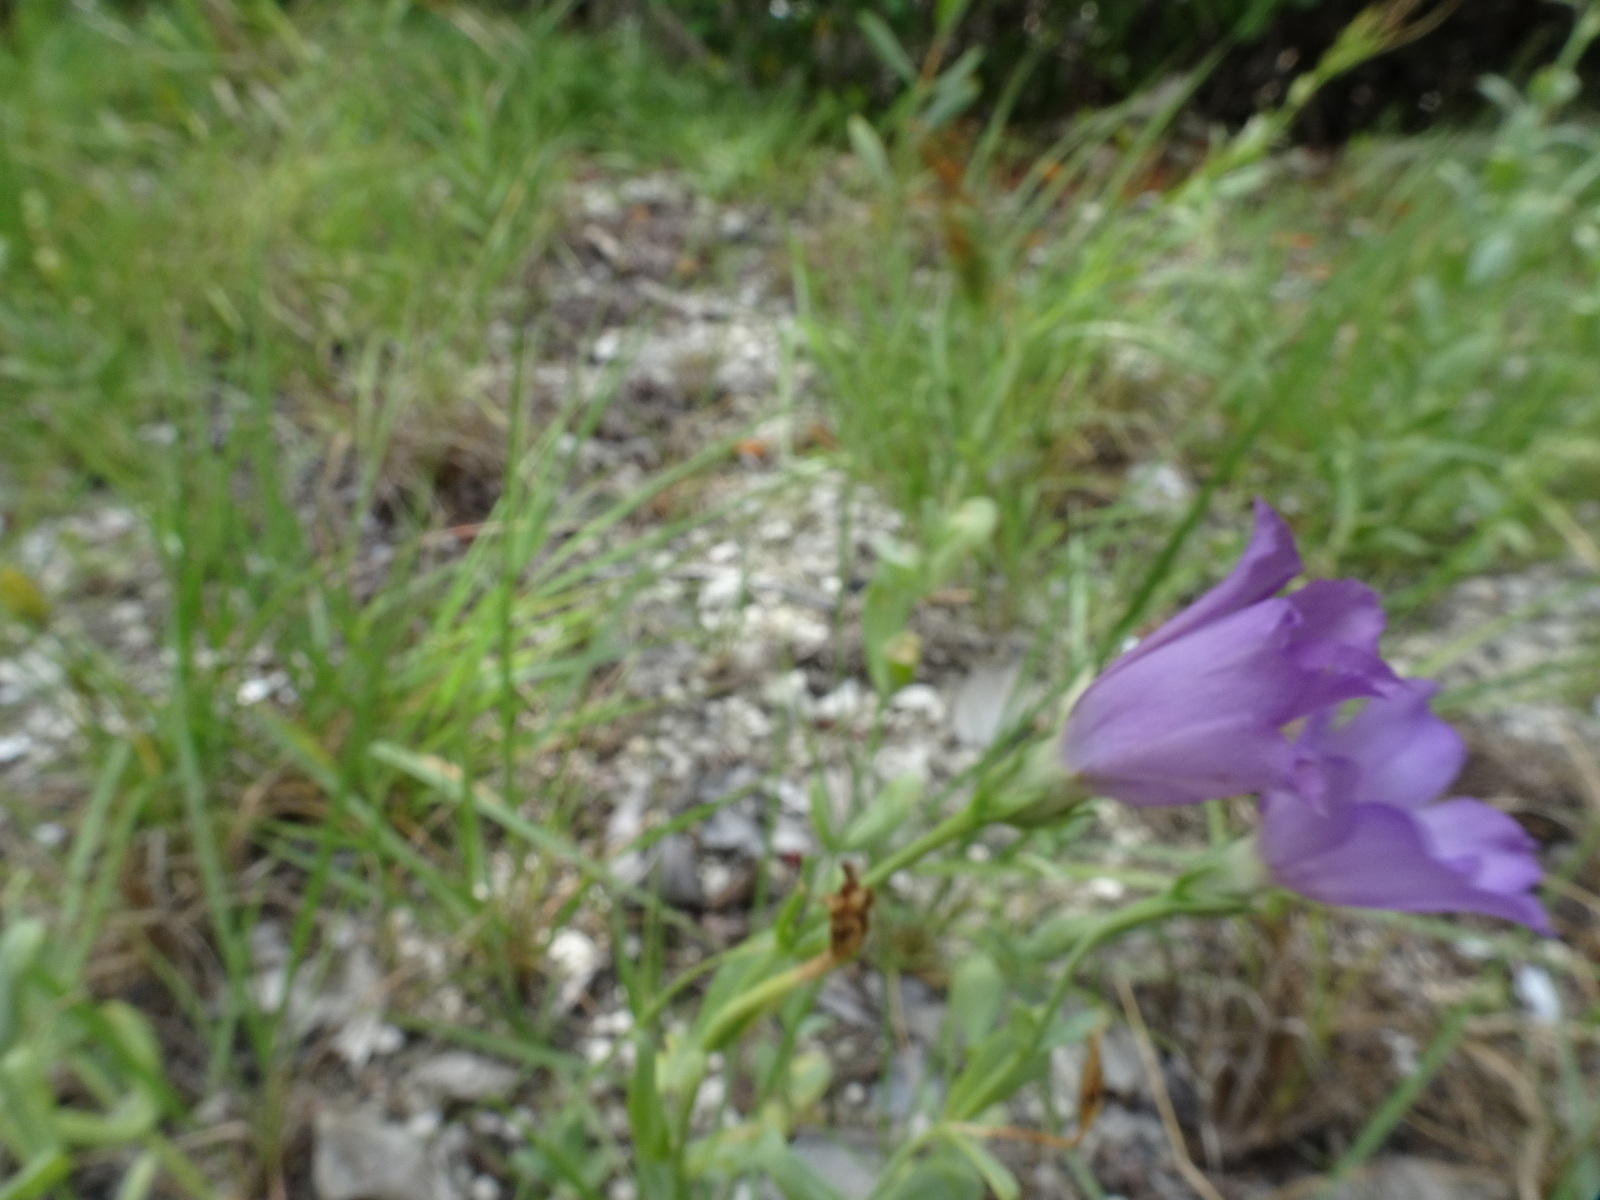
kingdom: Plantae
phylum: Tracheophyta
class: Magnoliopsida
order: Gentianales
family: Gentianaceae
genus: Eustoma
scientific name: Eustoma exaltatum
